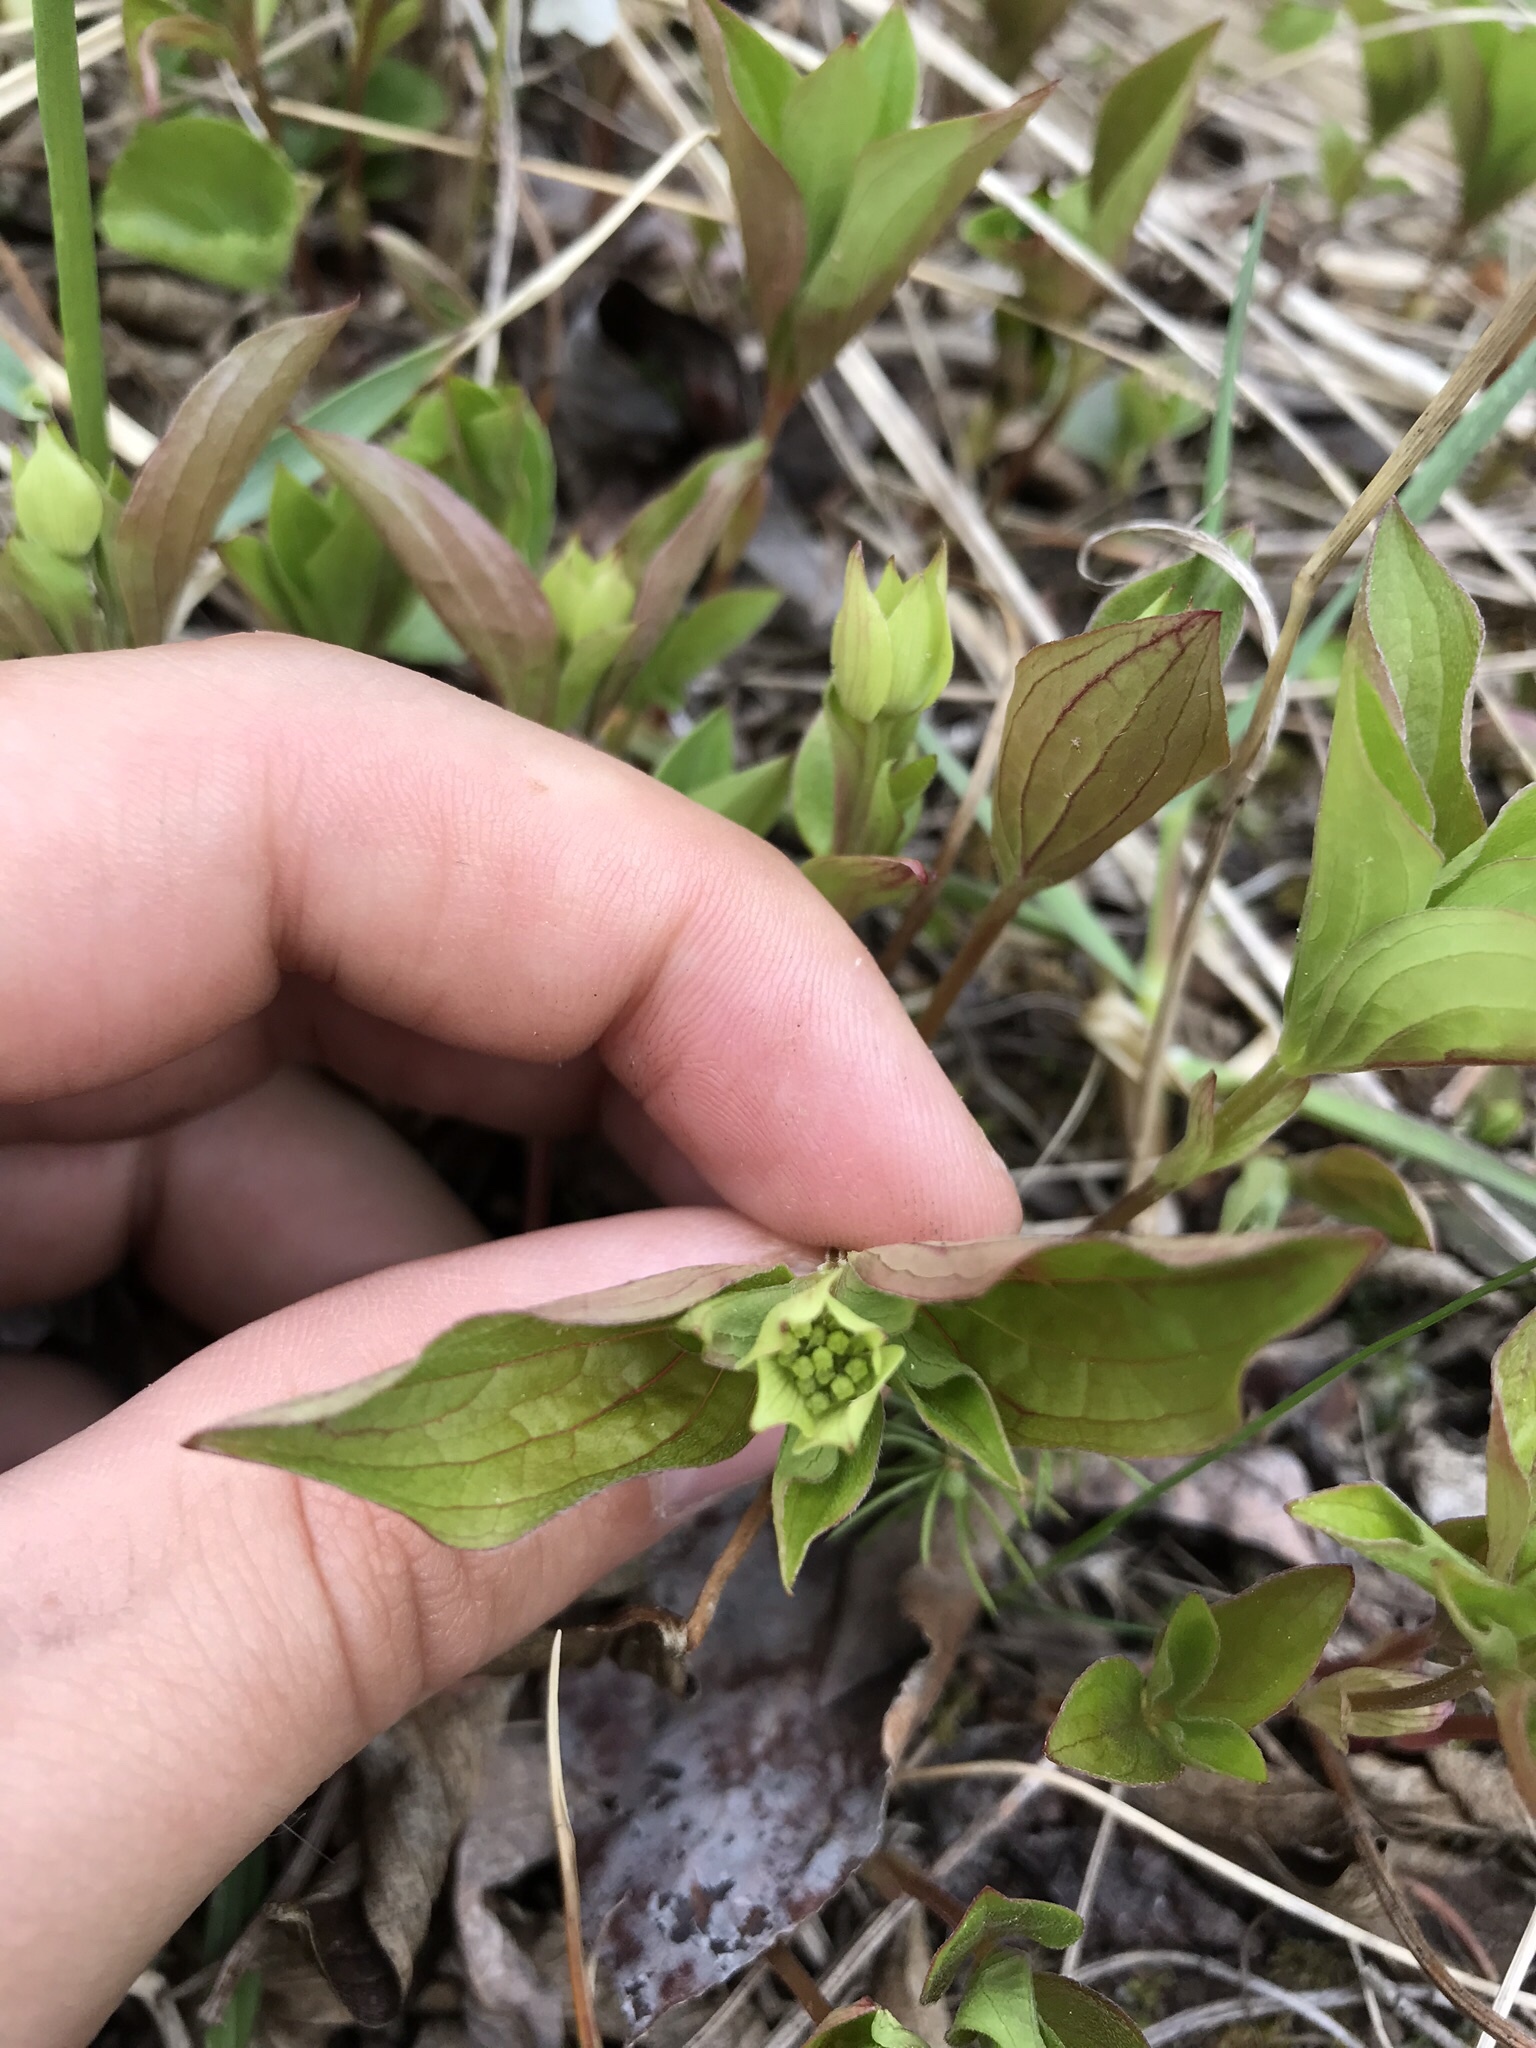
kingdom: Plantae
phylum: Tracheophyta
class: Magnoliopsida
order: Cornales
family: Cornaceae
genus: Cornus
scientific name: Cornus canadensis
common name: Creeping dogwood
